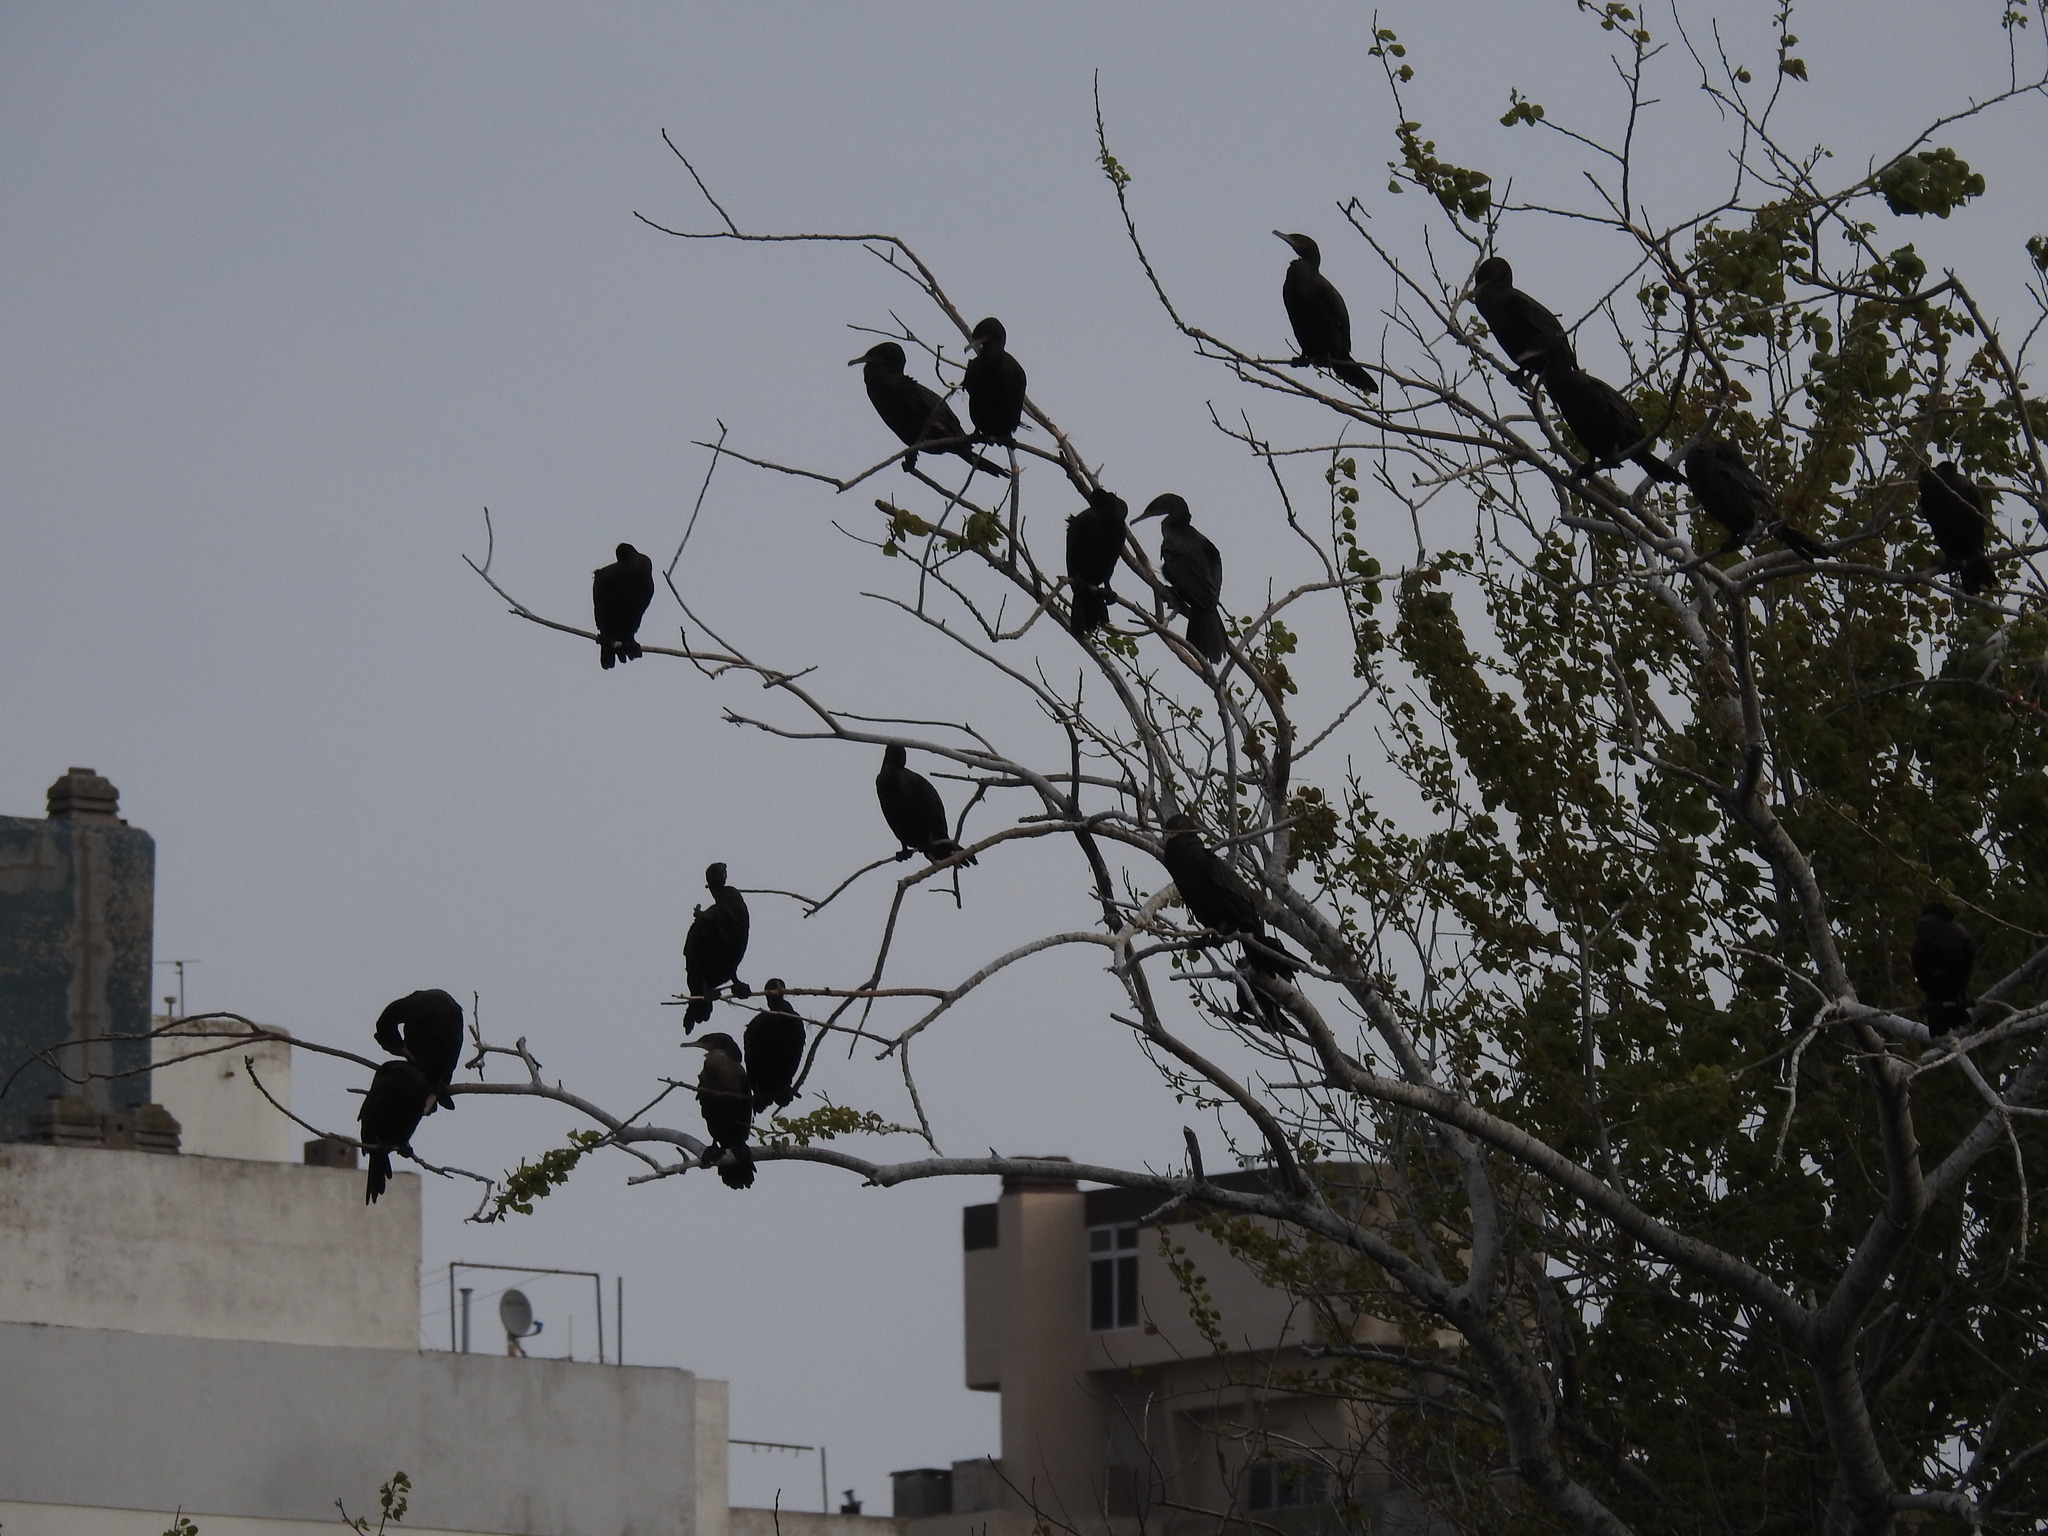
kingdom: Animalia
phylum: Chordata
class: Aves
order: Suliformes
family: Phalacrocoracidae
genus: Phalacrocorax
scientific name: Phalacrocorax brasilianus
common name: Neotropic cormorant
